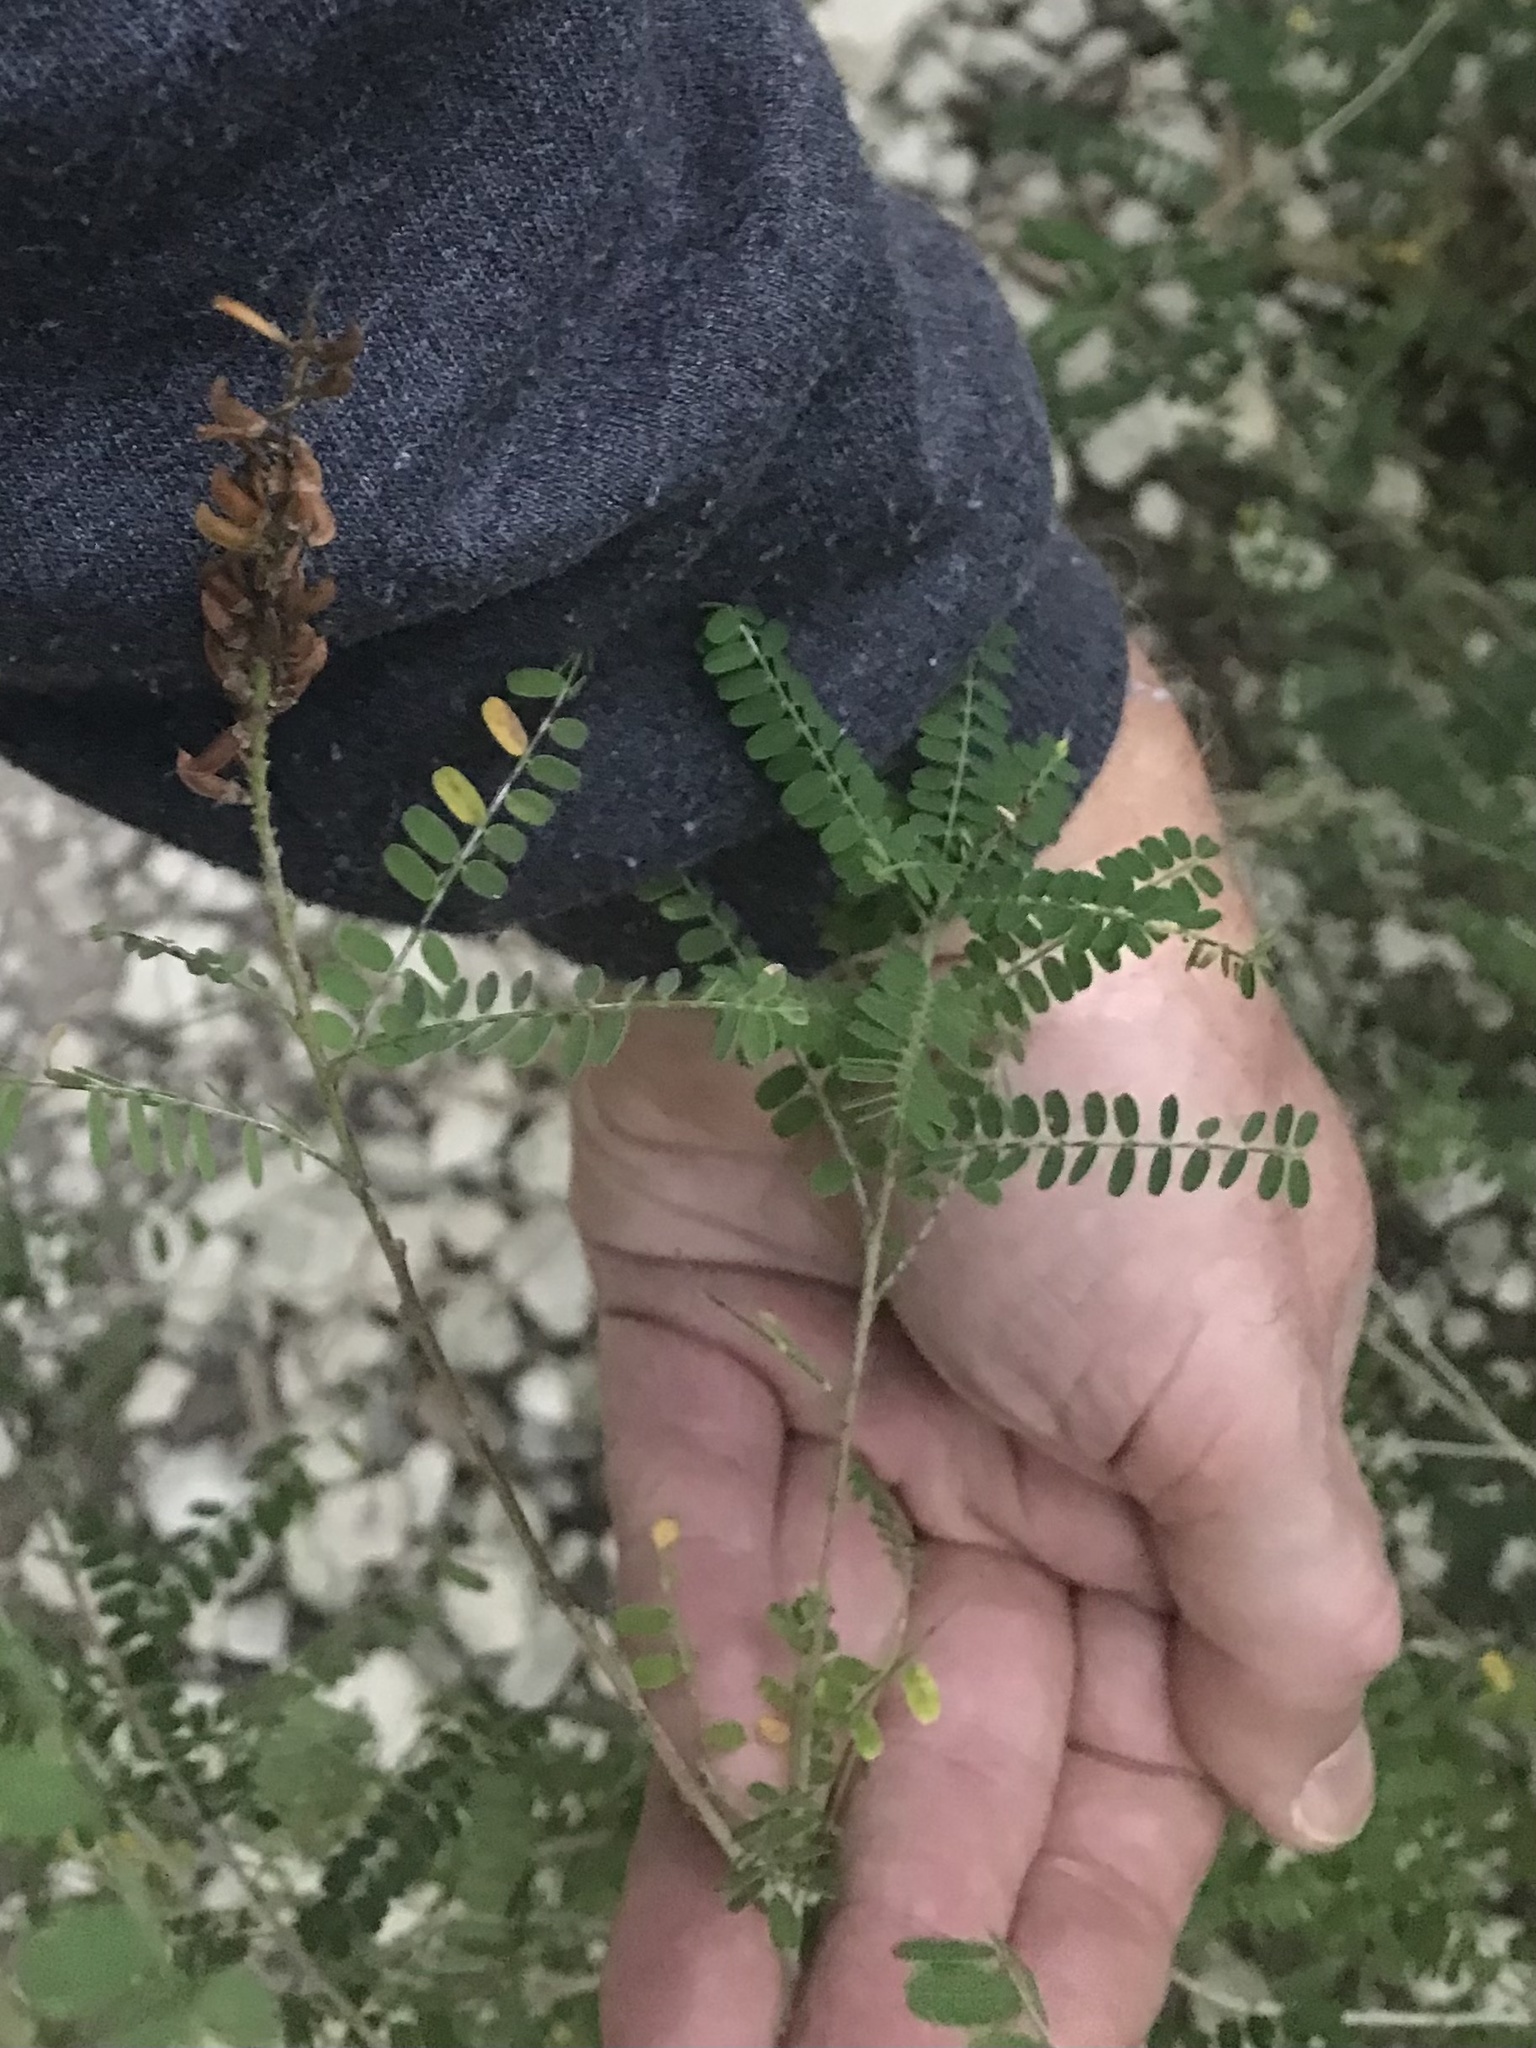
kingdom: Plantae
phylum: Tracheophyta
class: Magnoliopsida
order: Fabales
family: Fabaceae
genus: Eysenhardtia
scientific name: Eysenhardtia texana
